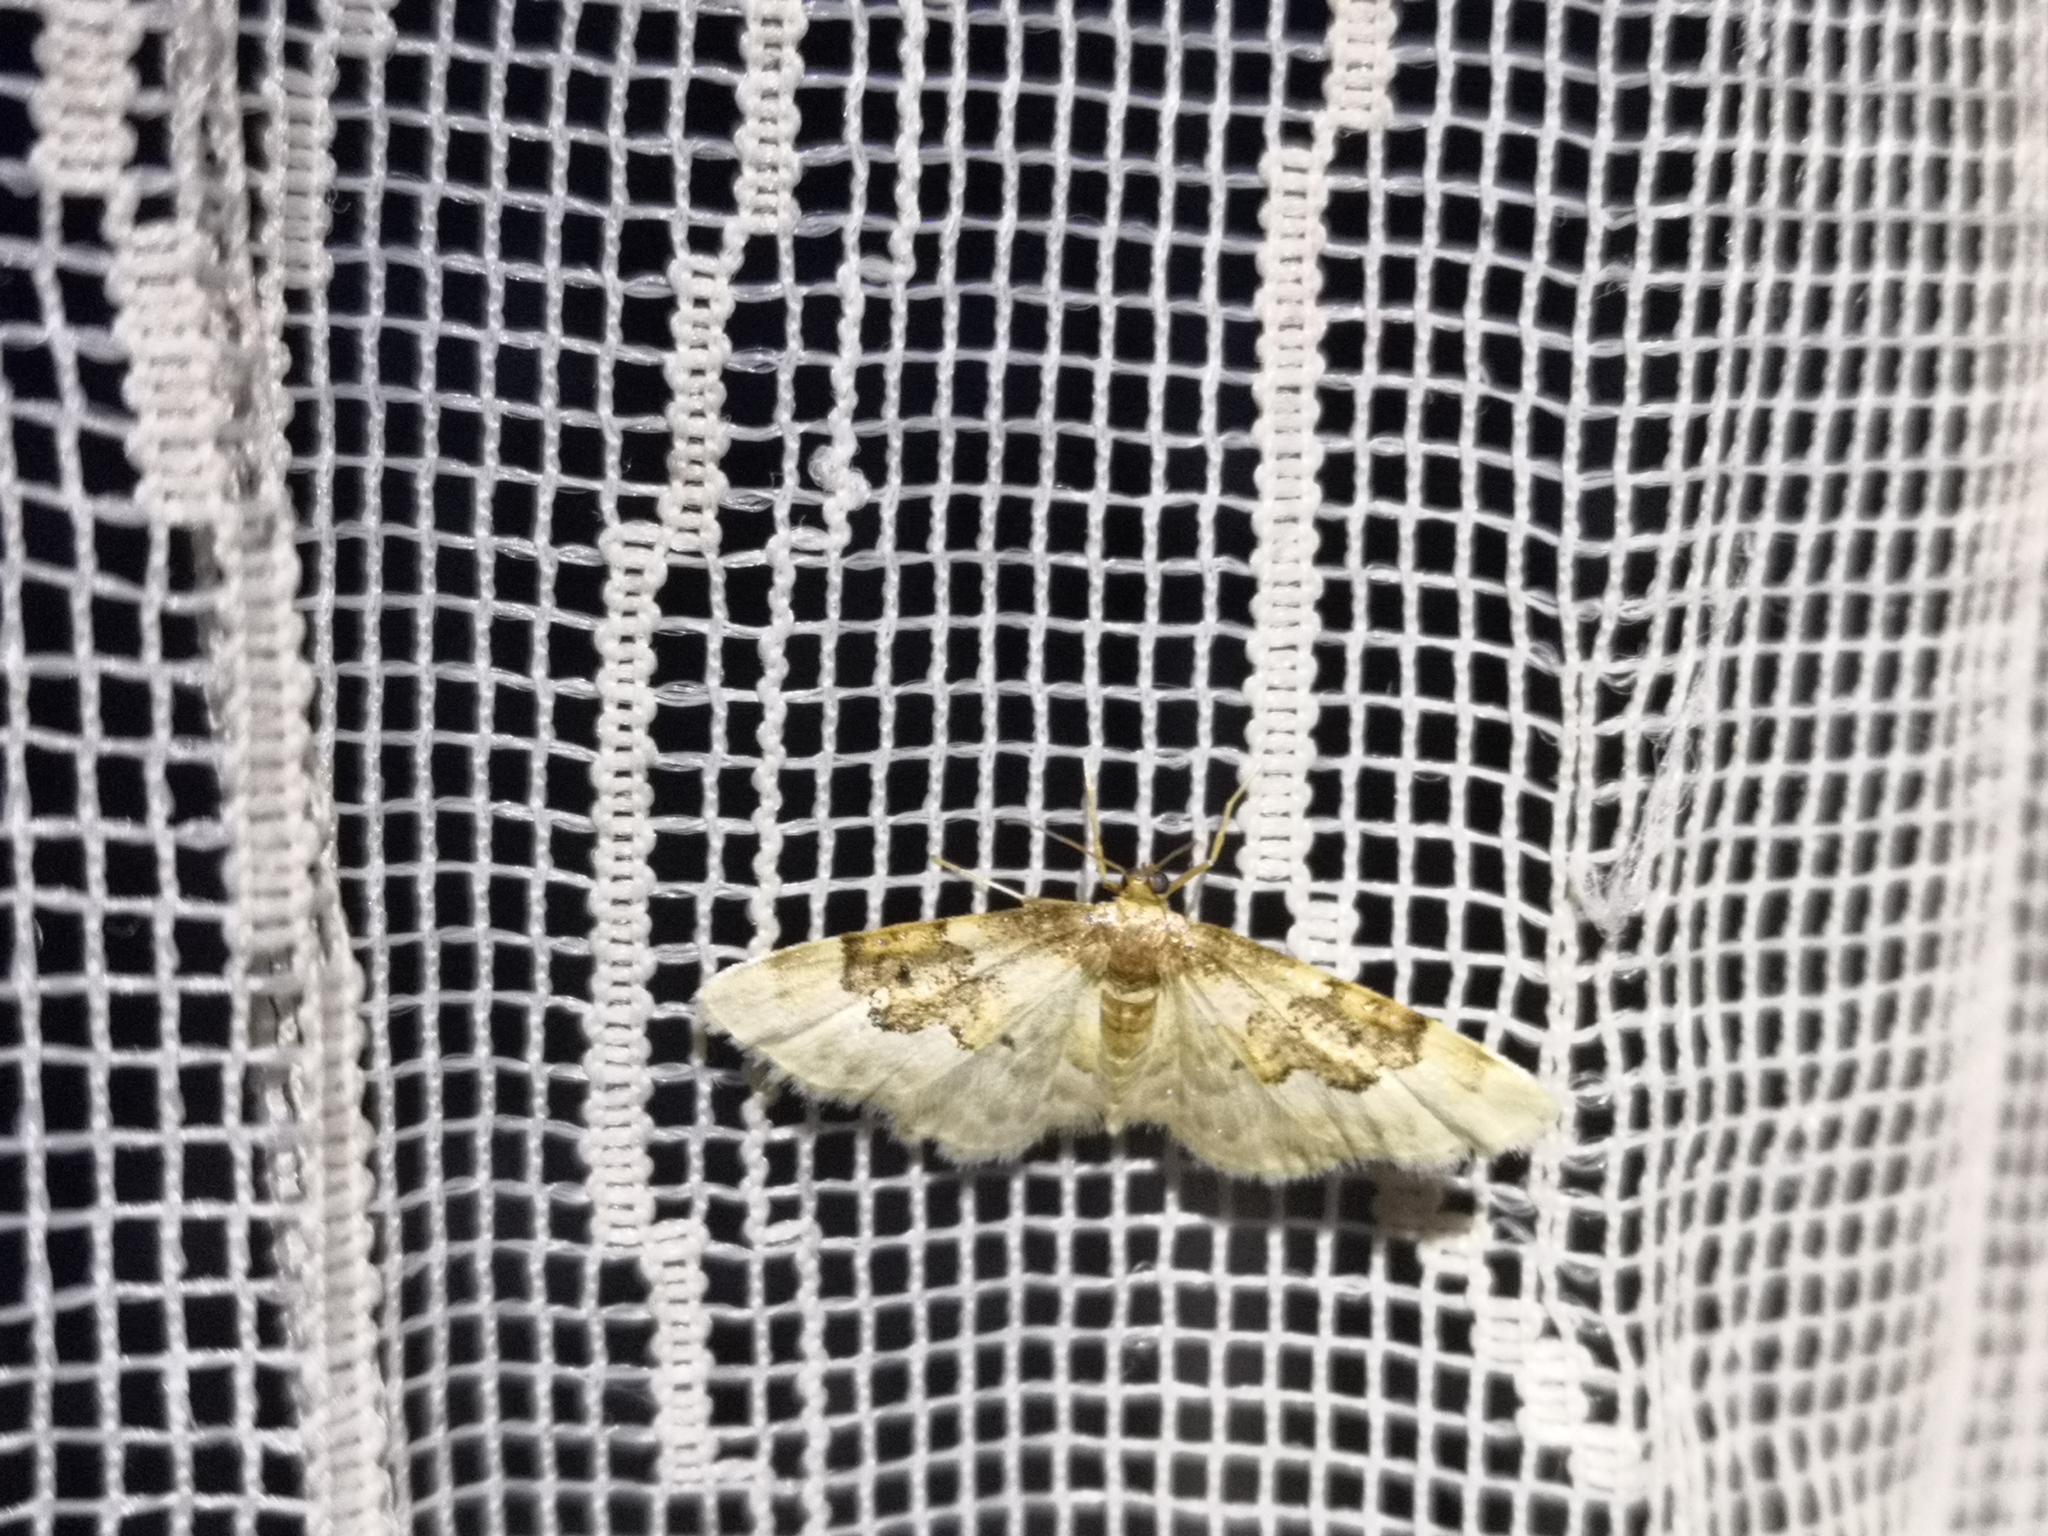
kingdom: Animalia
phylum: Arthropoda
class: Insecta
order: Lepidoptera
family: Geometridae
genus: Idaea
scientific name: Idaea rusticata
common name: Least carpet
